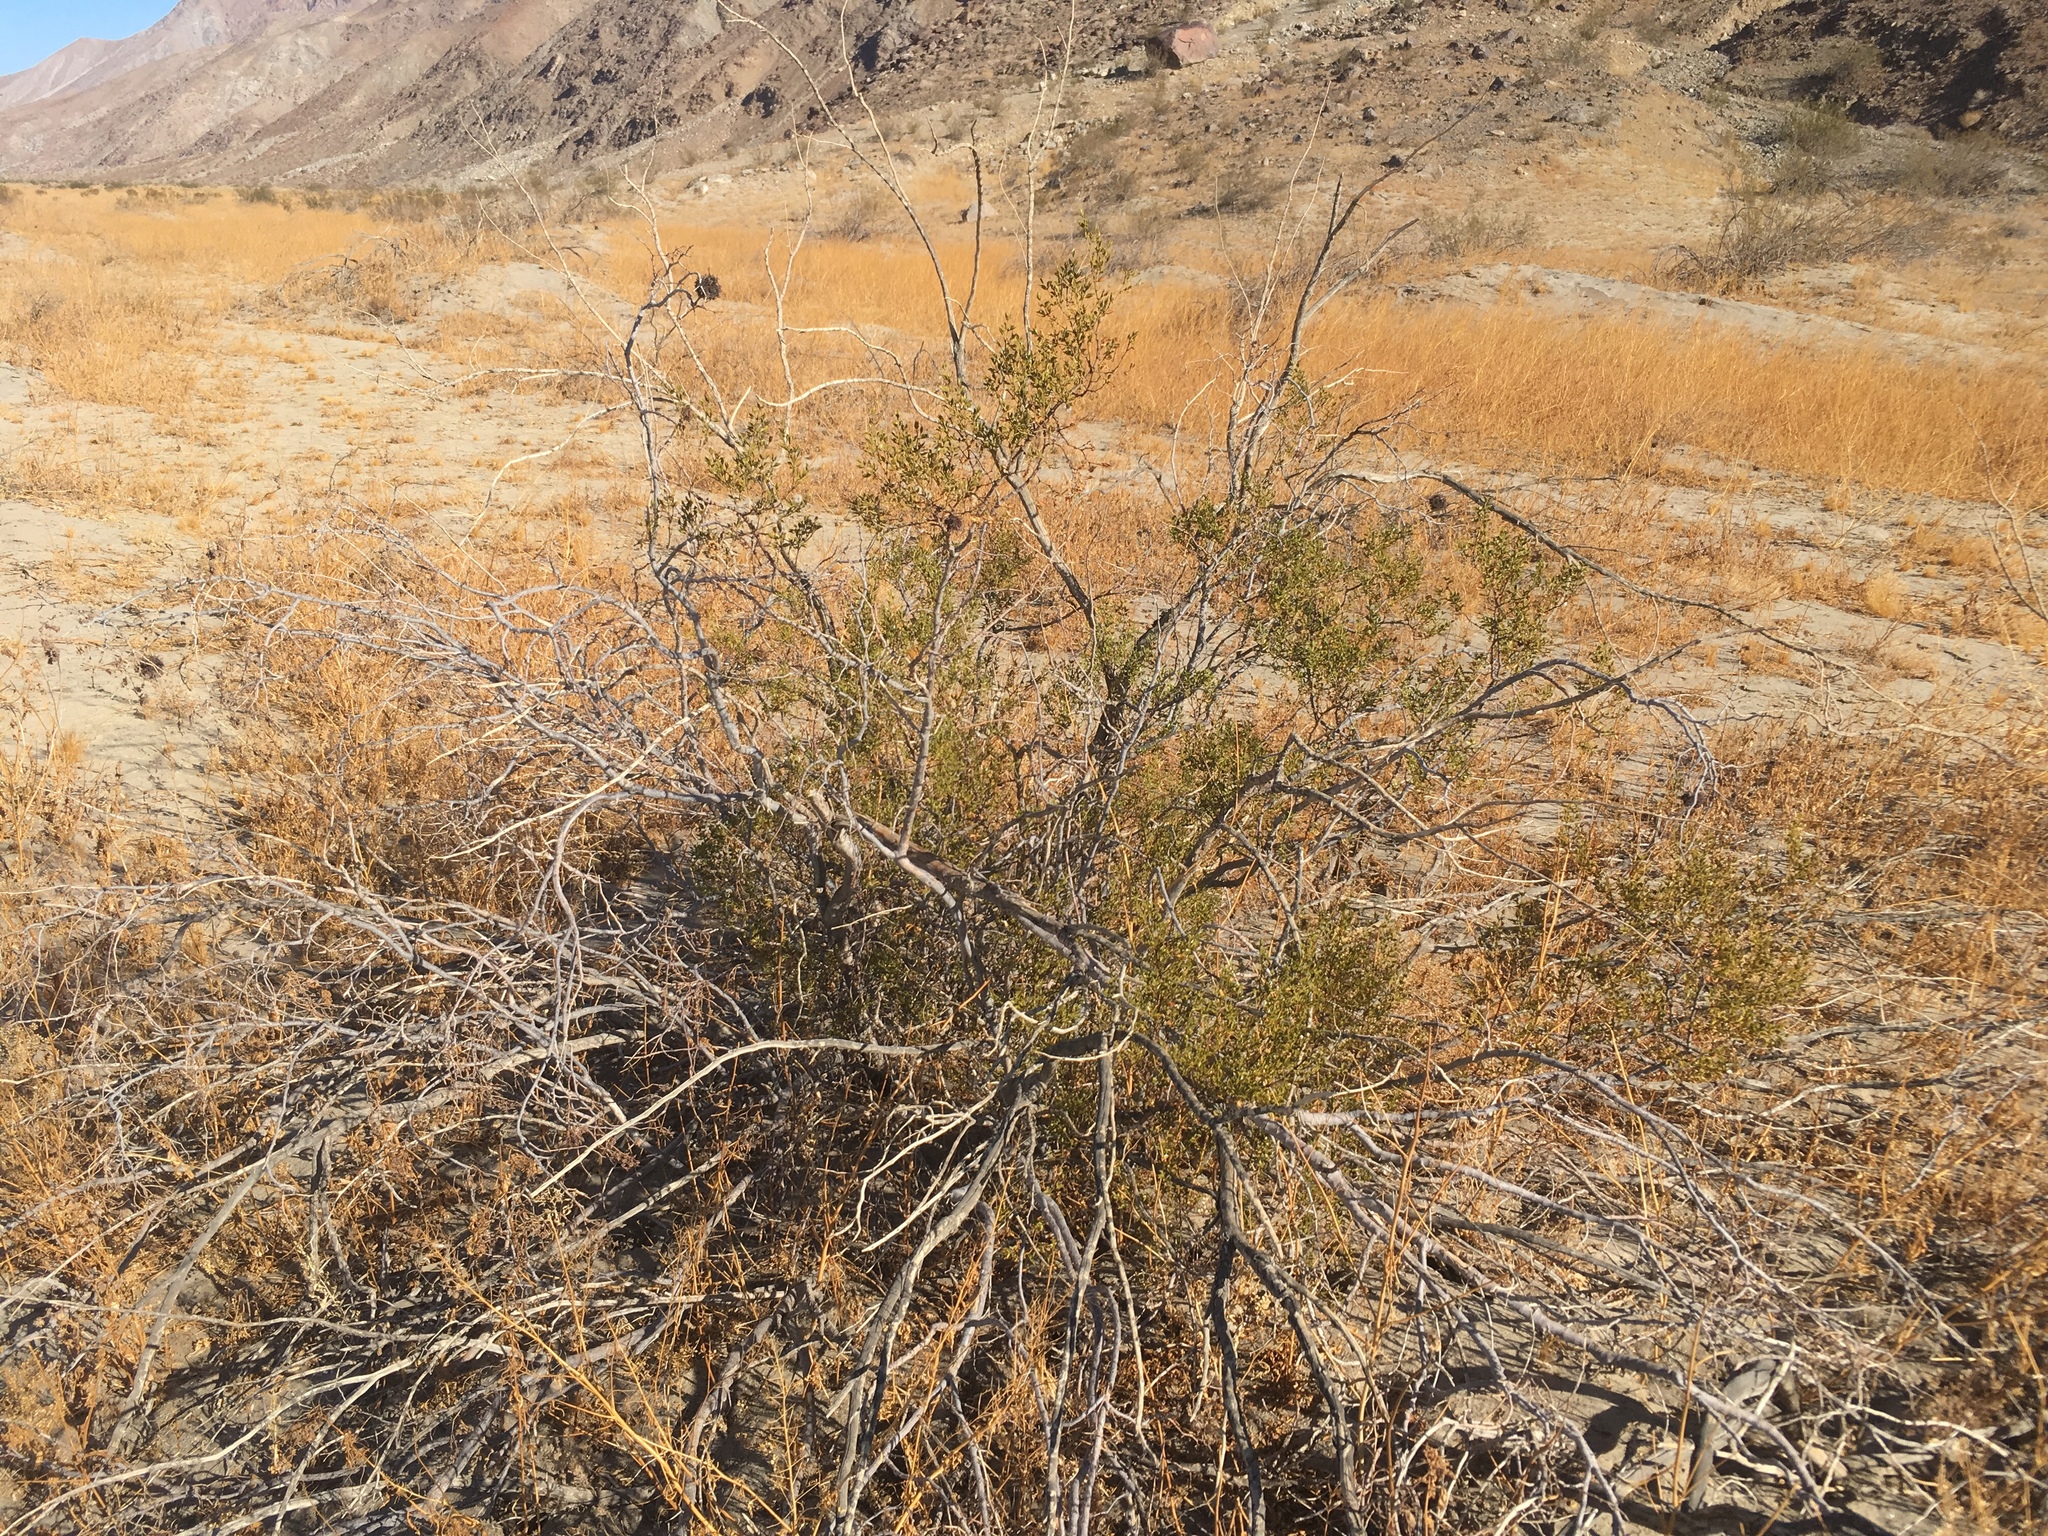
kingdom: Animalia
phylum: Arthropoda
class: Insecta
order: Diptera
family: Cecidomyiidae
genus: Asphondylia
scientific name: Asphondylia auripila
